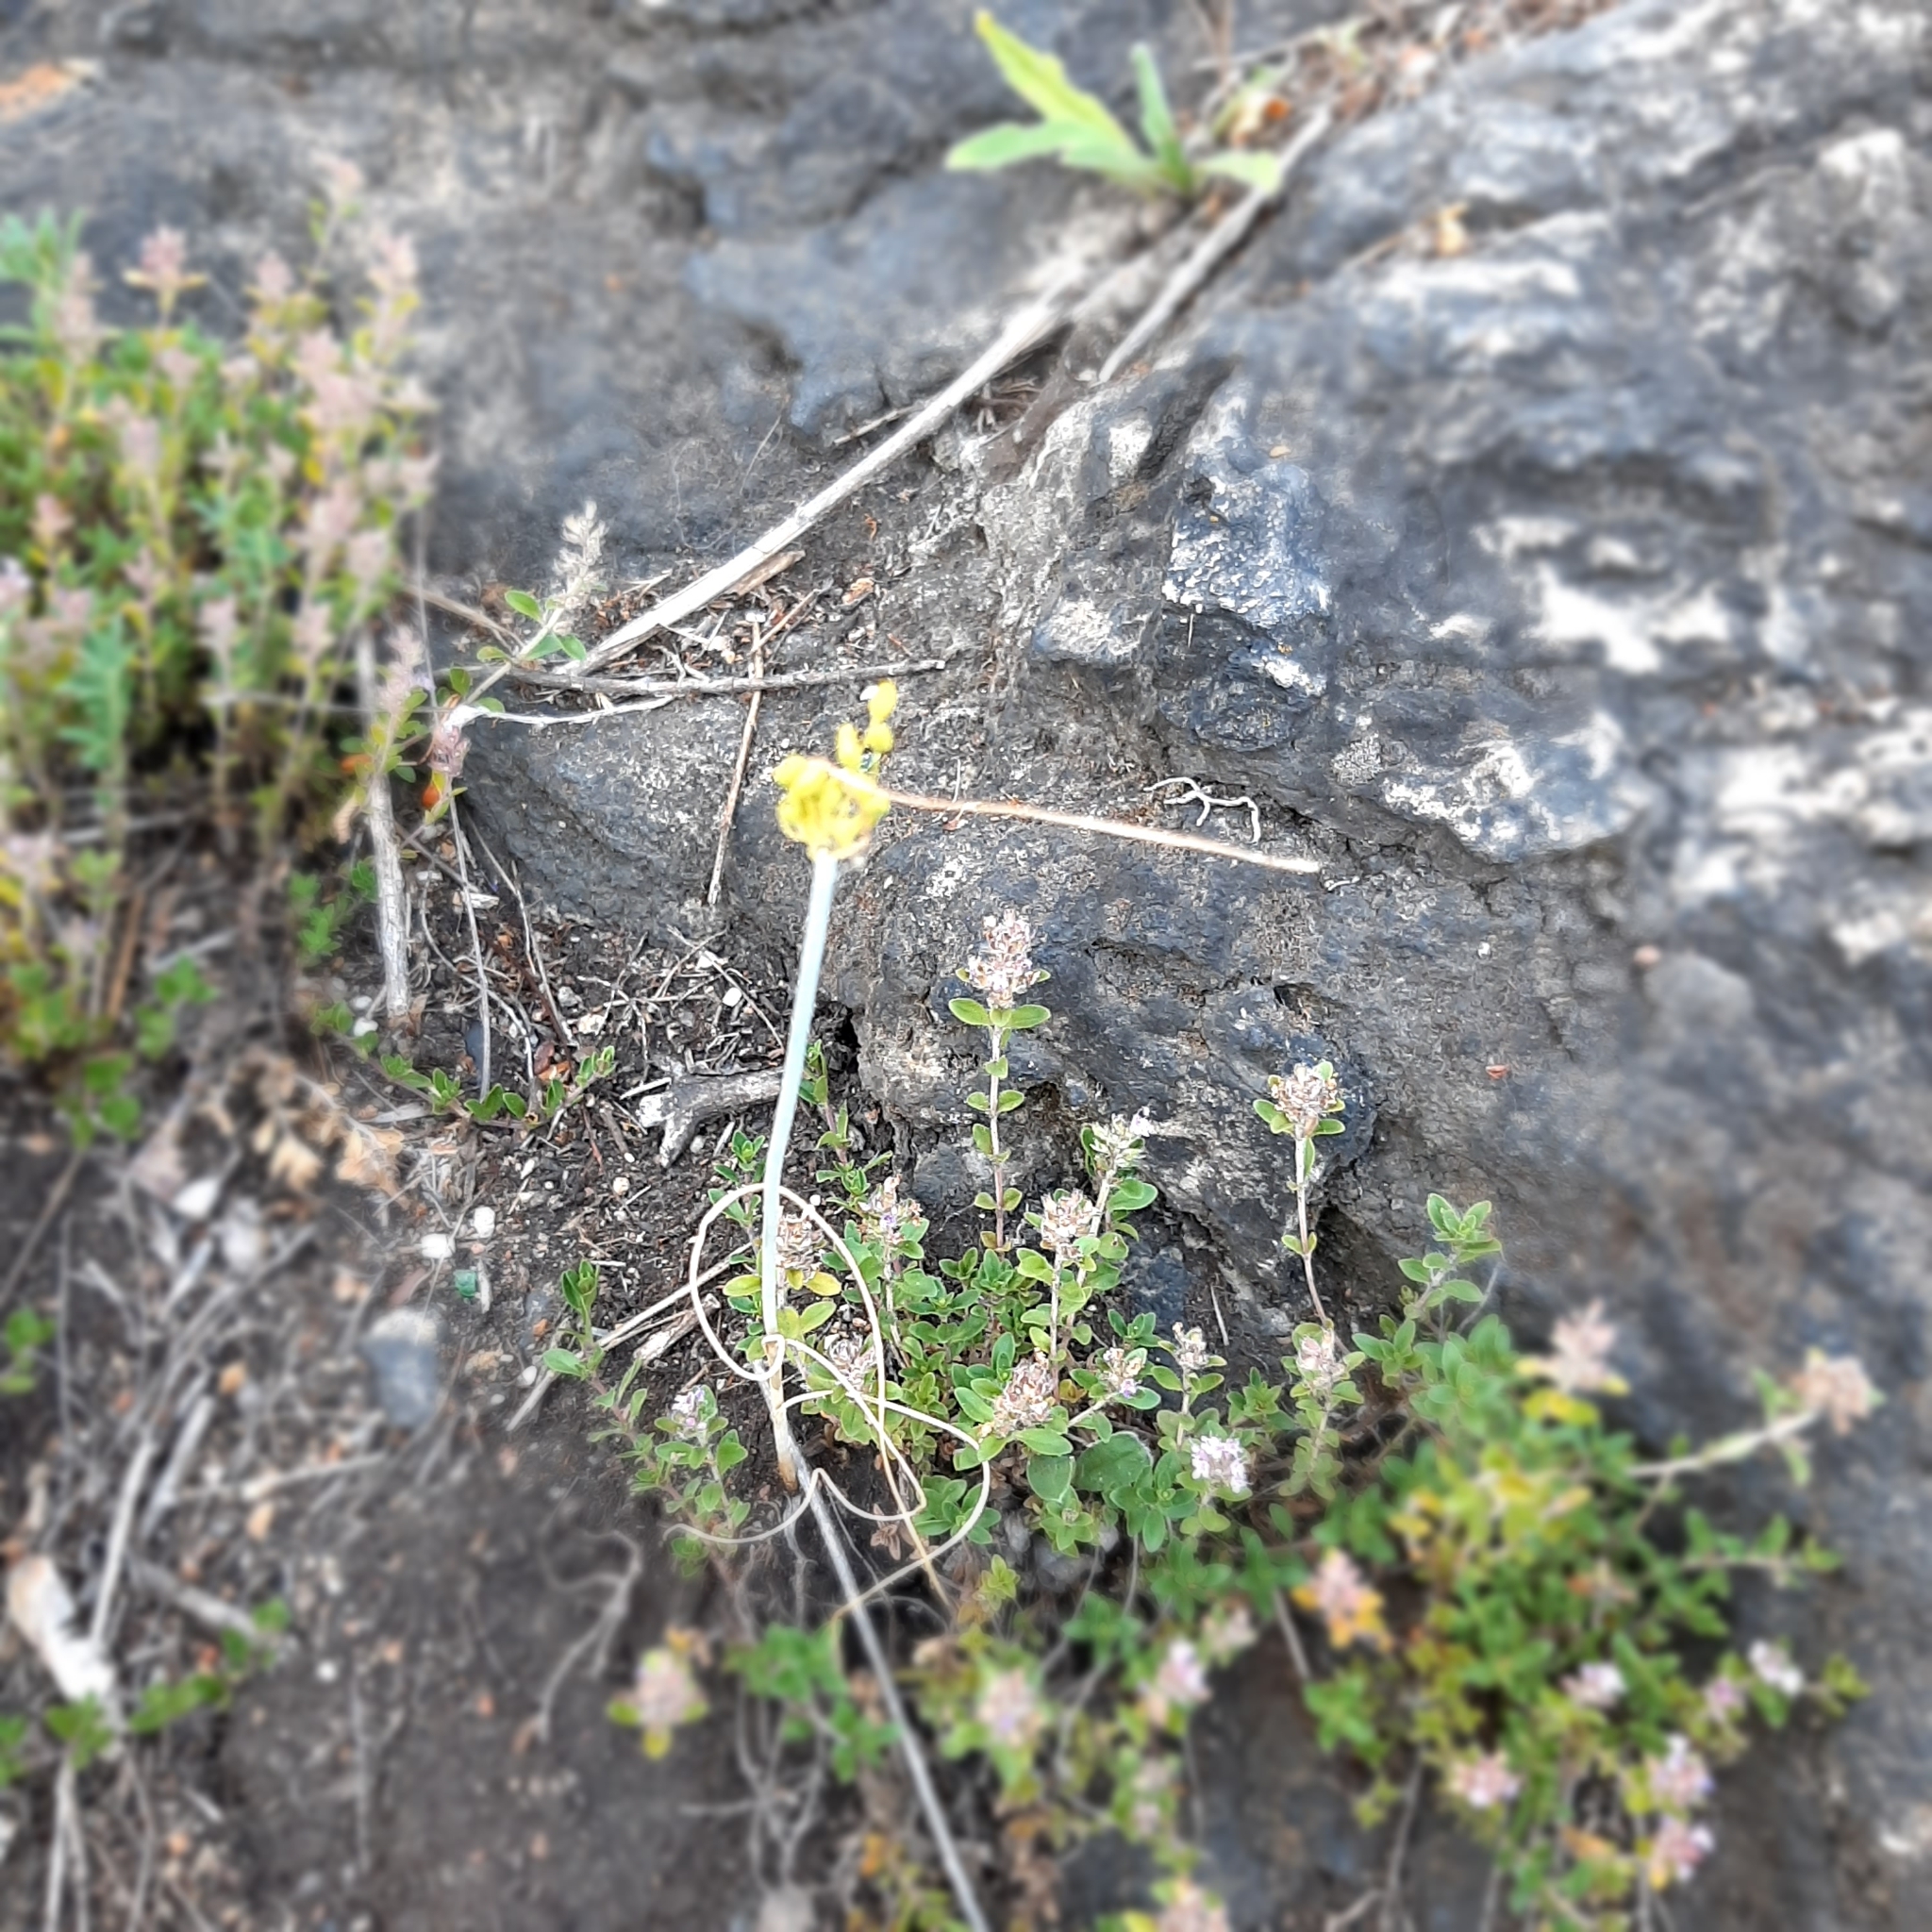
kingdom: Plantae
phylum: Tracheophyta
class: Liliopsida
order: Asparagales
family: Amaryllidaceae
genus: Allium
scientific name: Allium flavum
